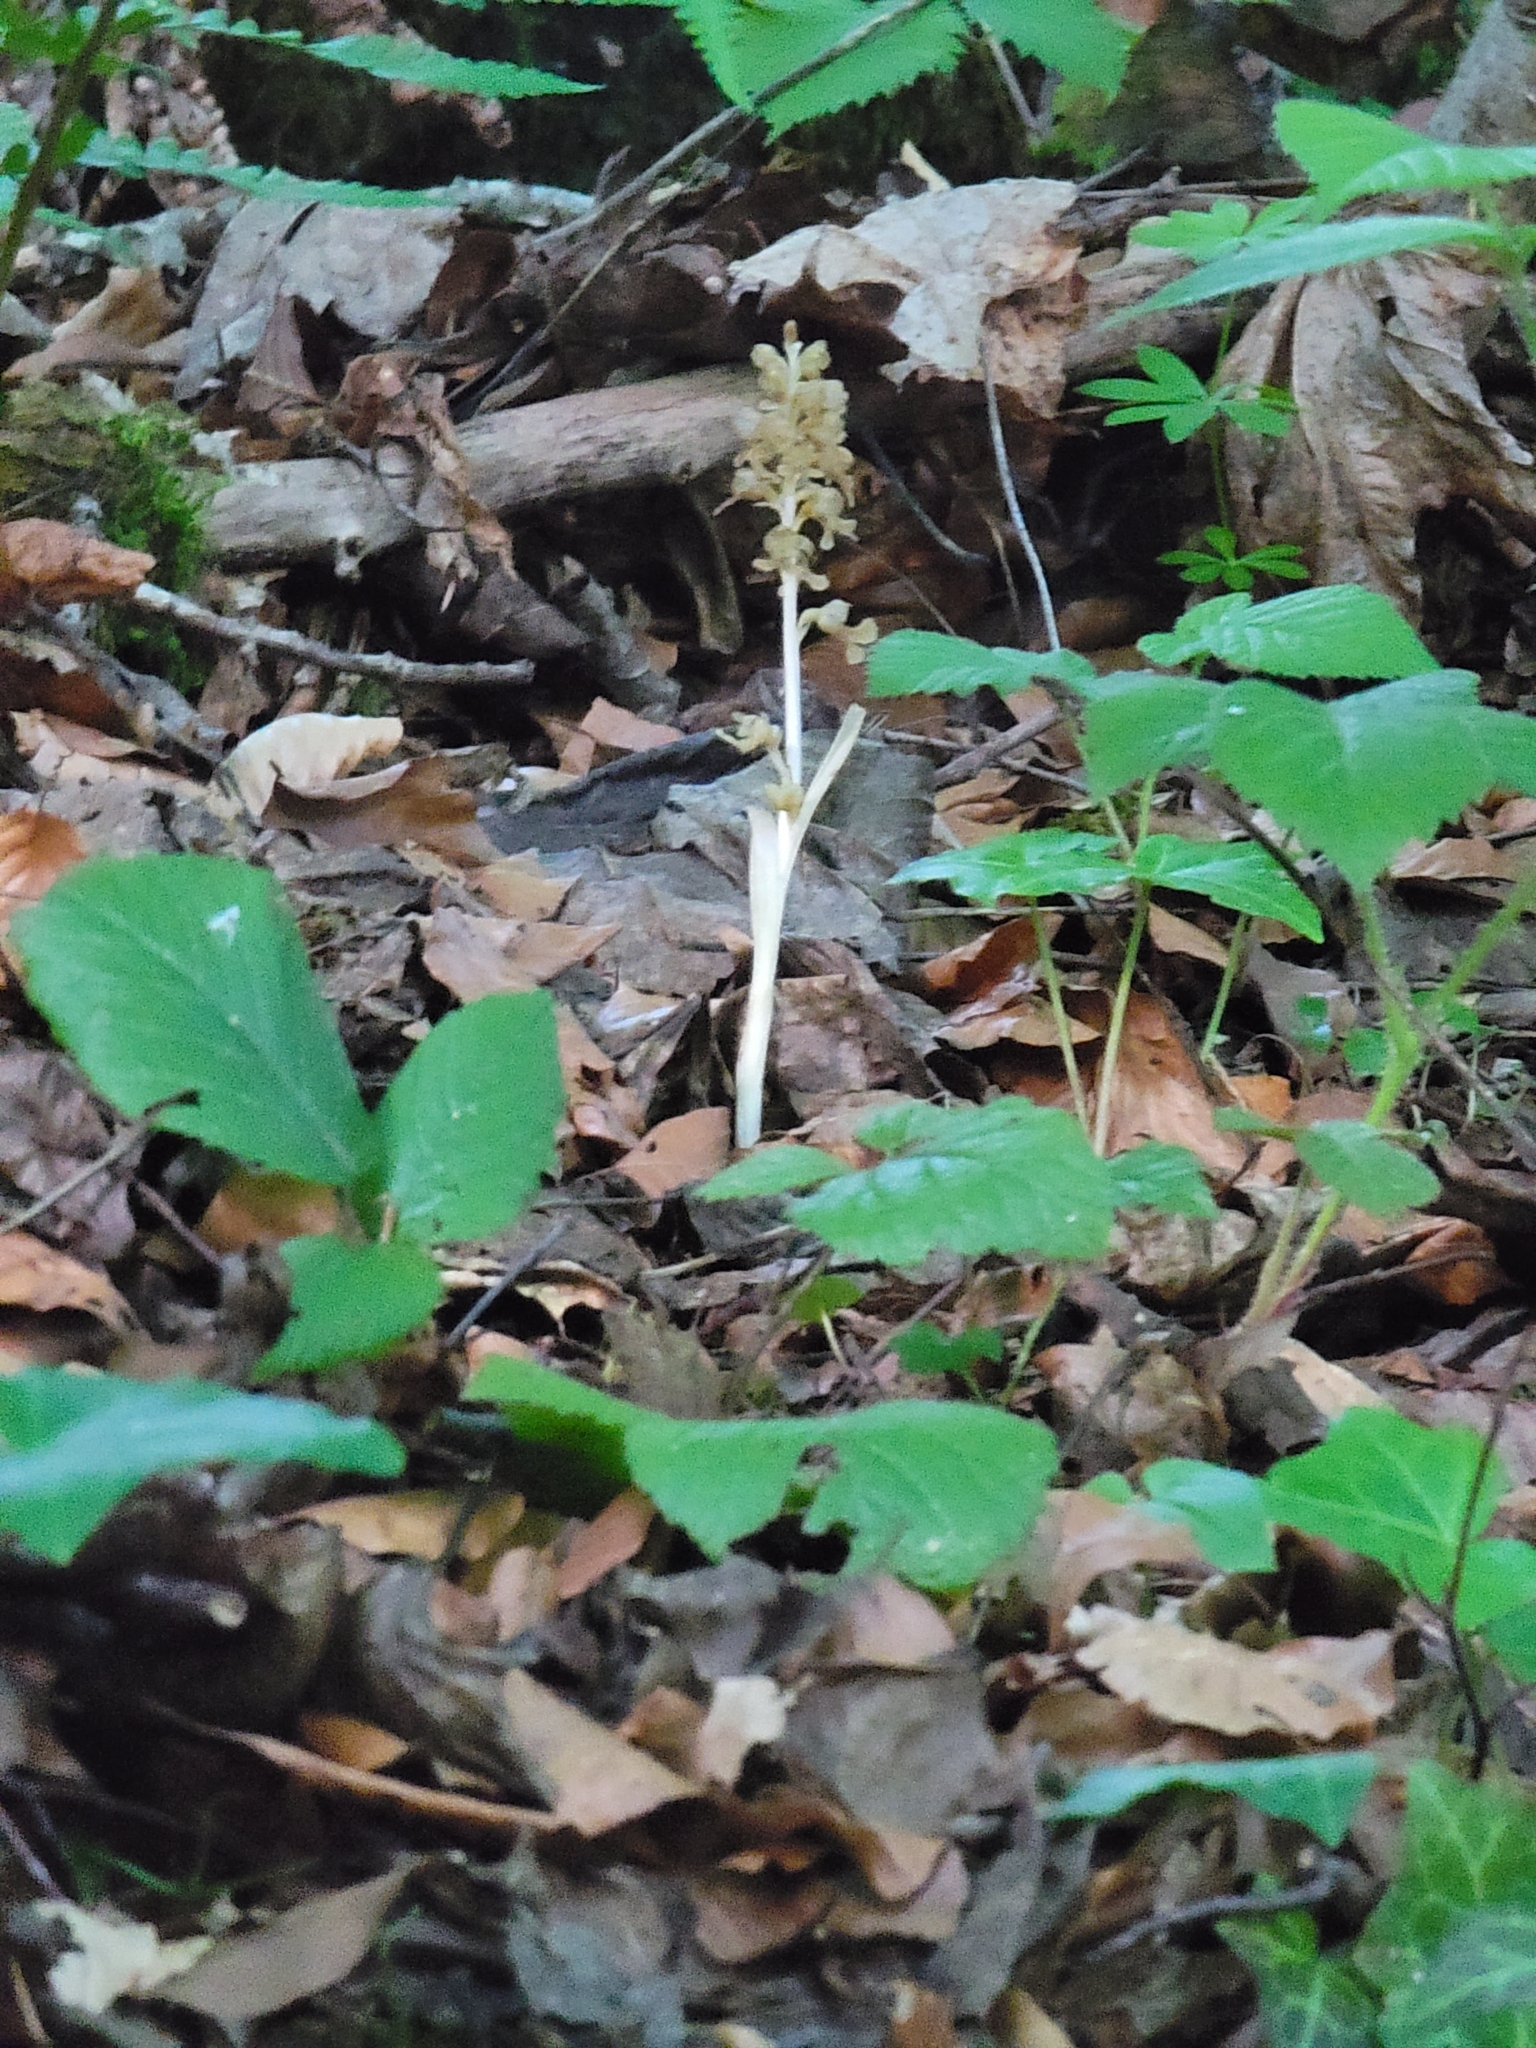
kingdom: Plantae
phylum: Tracheophyta
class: Liliopsida
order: Asparagales
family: Orchidaceae
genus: Neottia
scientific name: Neottia nidus-avis
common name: Bird's-nest orchid
